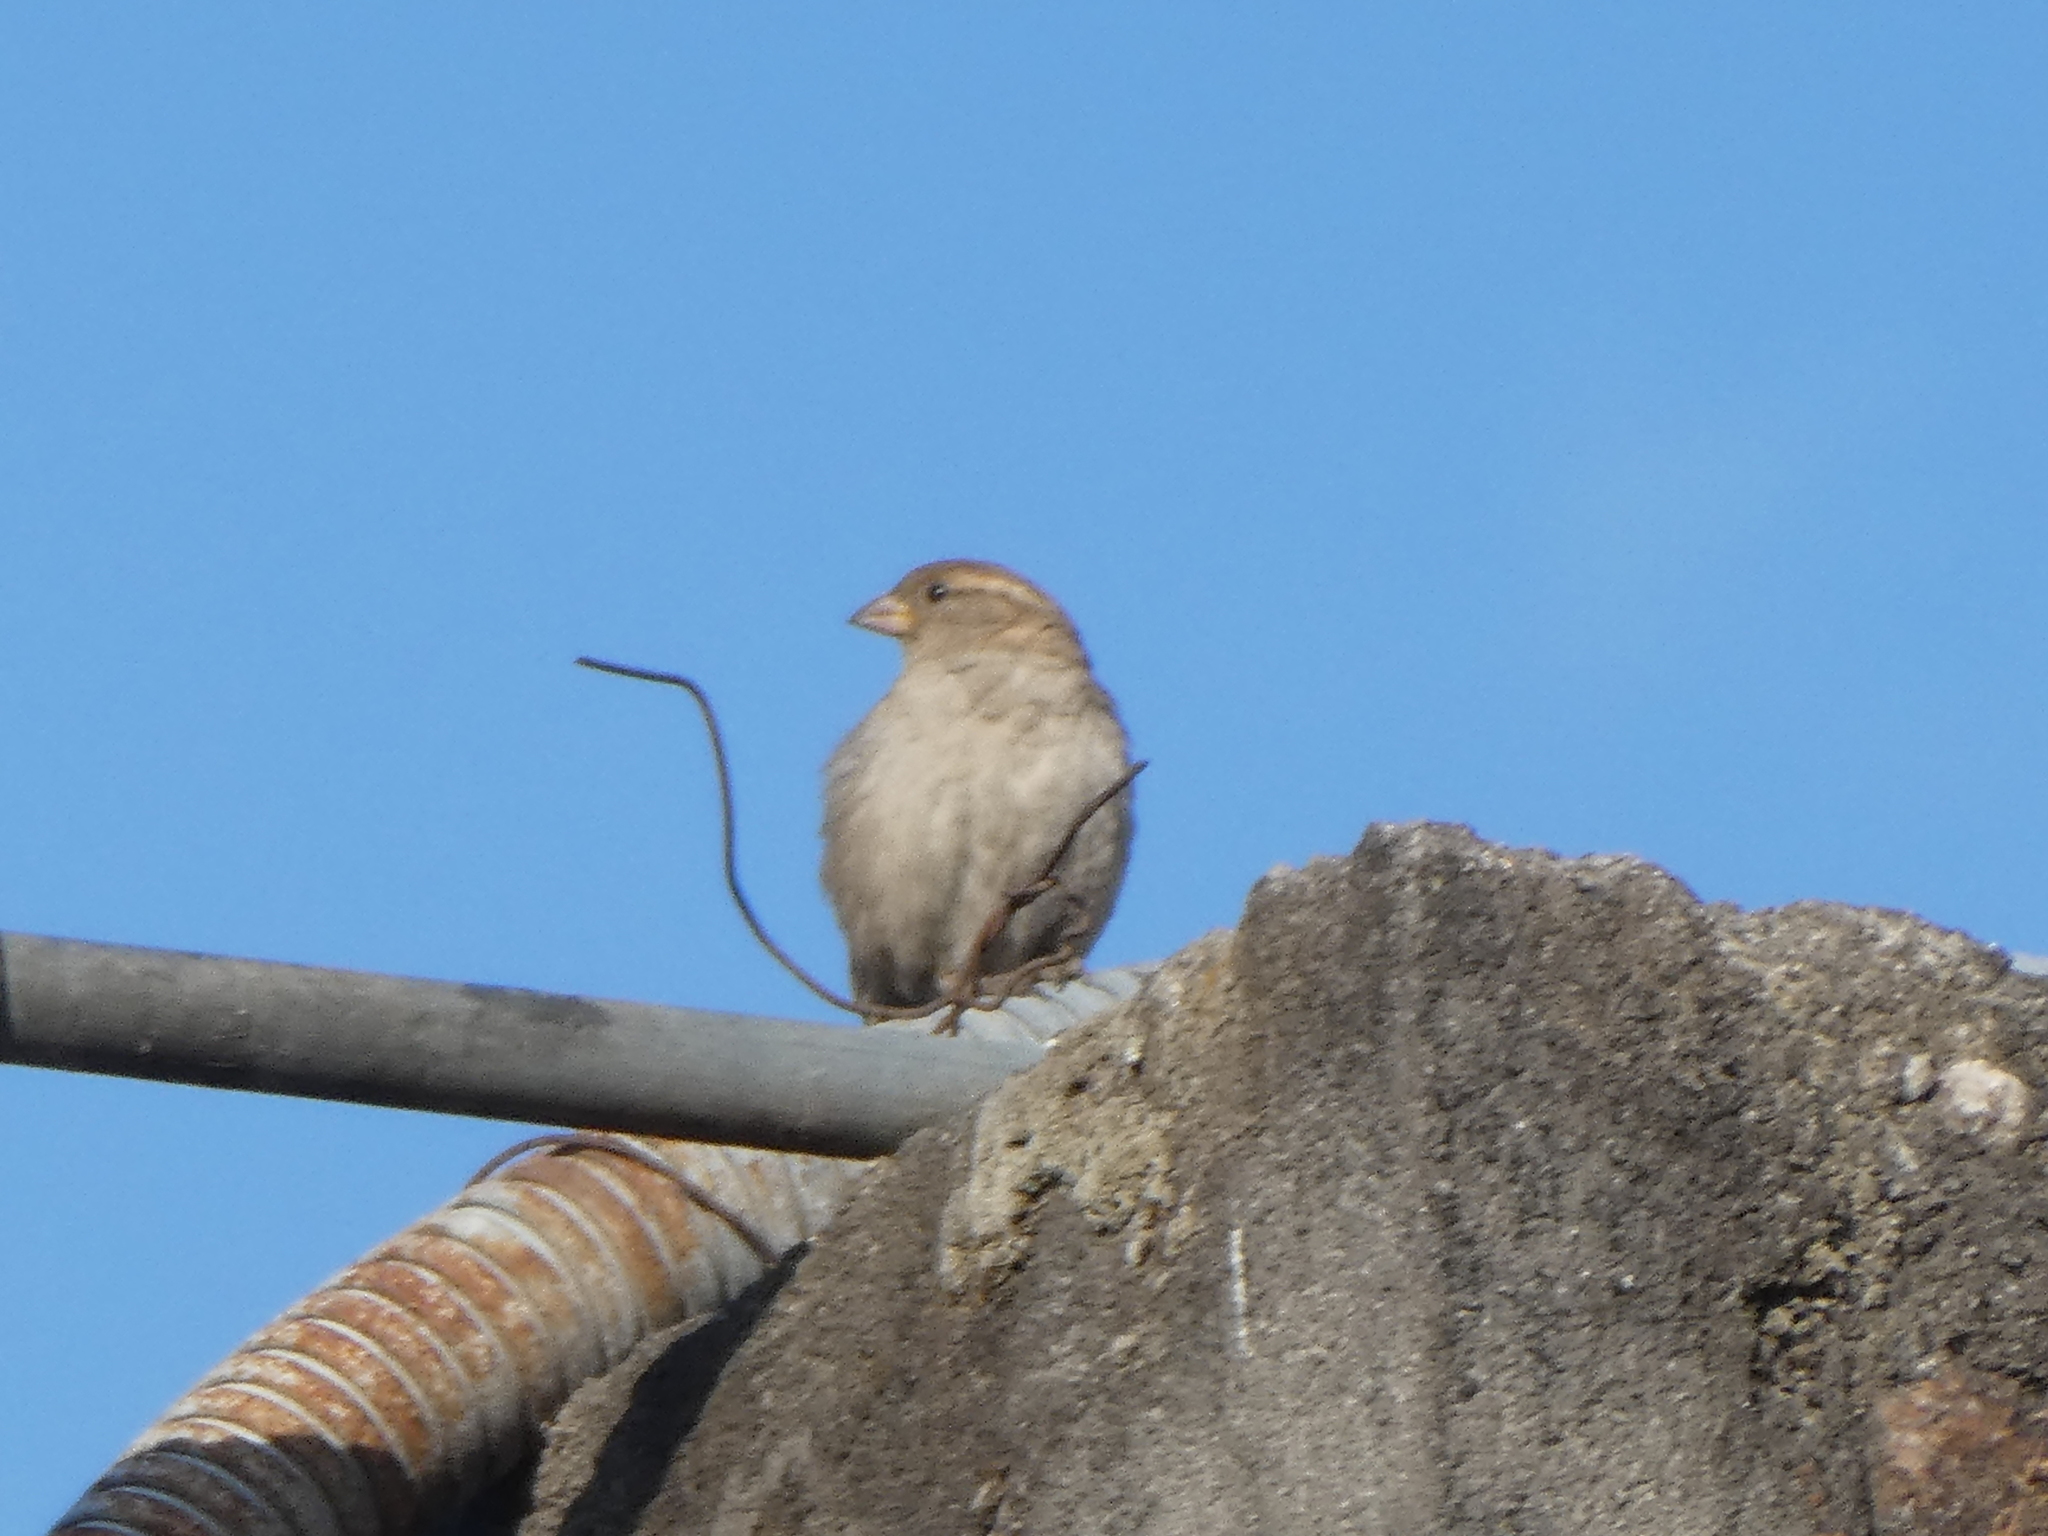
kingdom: Animalia
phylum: Chordata
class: Aves
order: Passeriformes
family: Passeridae
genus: Passer
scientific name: Passer domesticus
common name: House sparrow
